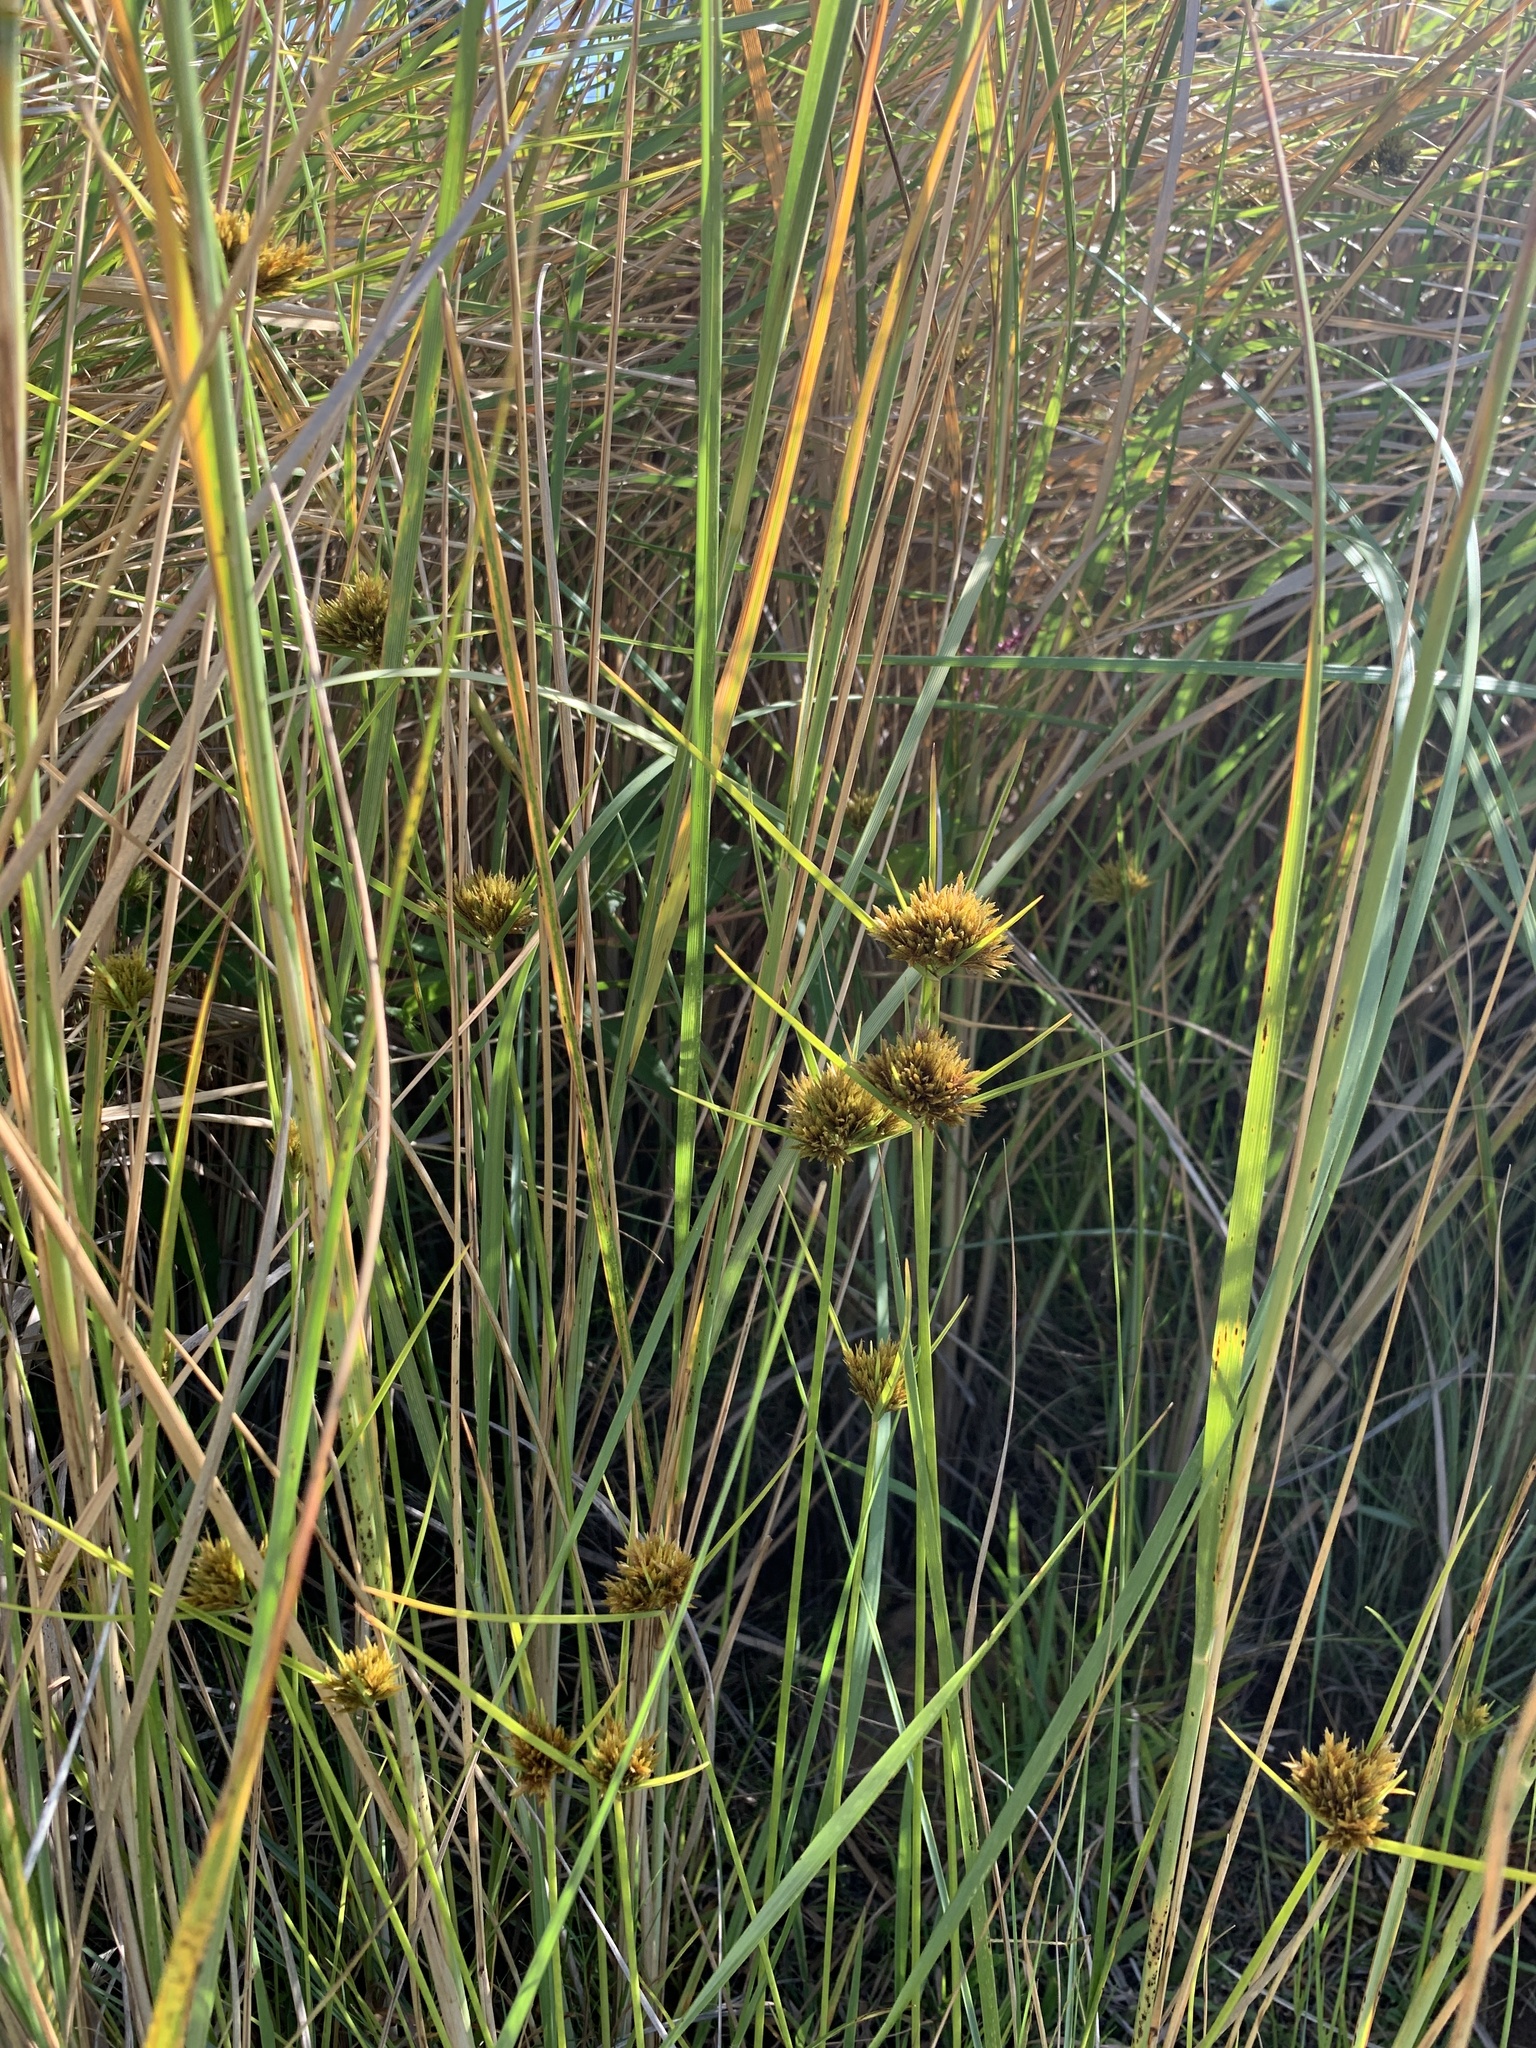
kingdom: Plantae
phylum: Tracheophyta
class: Liliopsida
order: Poales
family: Cyperaceae
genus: Cyperus
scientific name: Cyperus polystachyos
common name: Bunchy flat sedge
